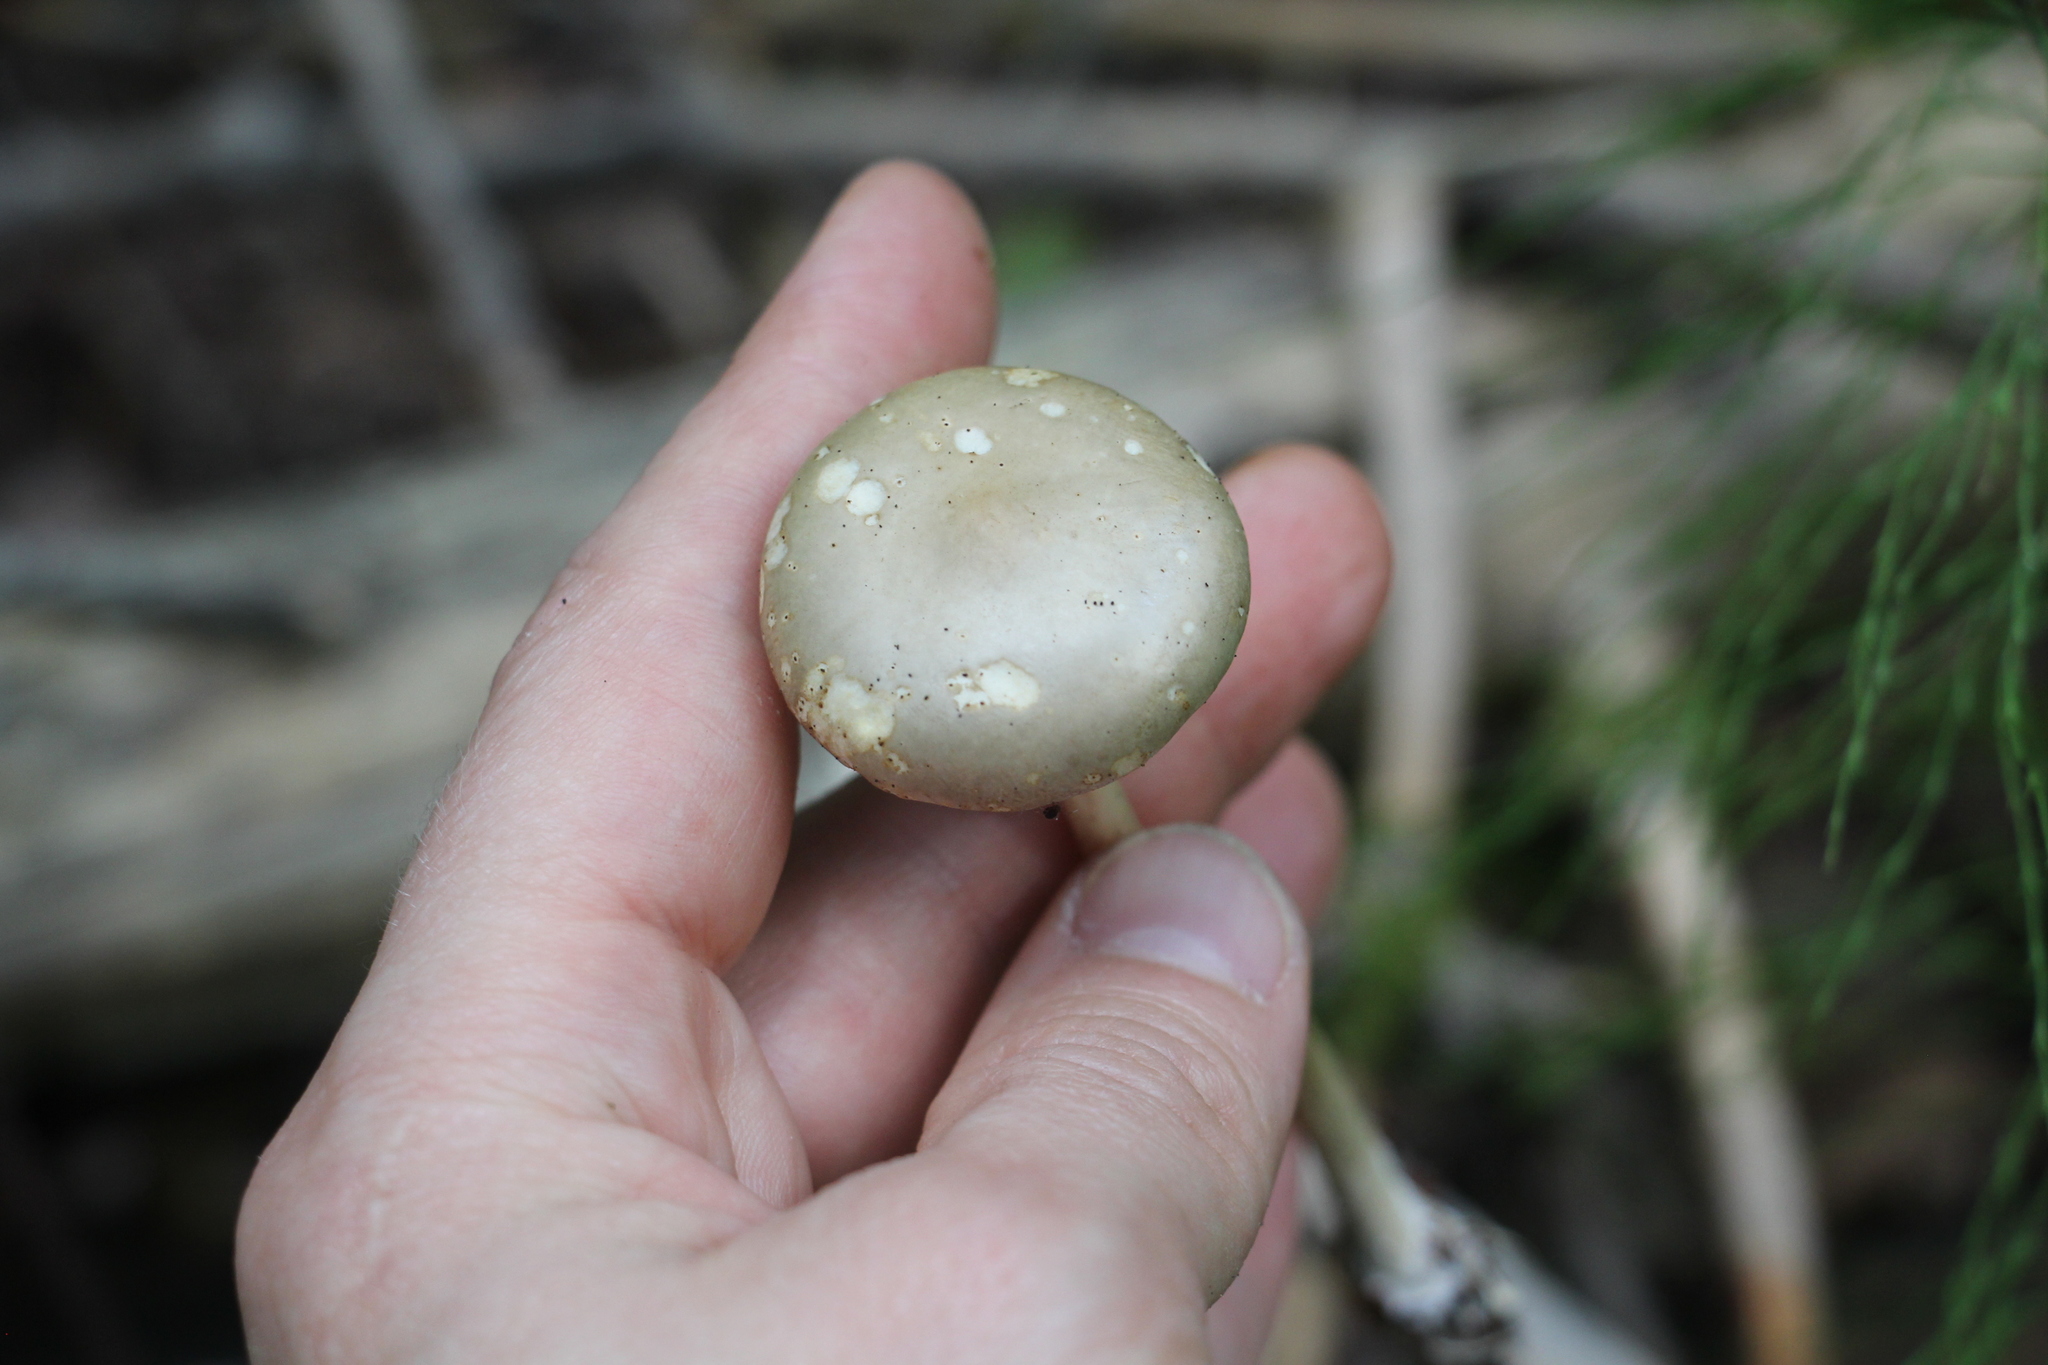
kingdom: Fungi
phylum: Basidiomycota
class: Agaricomycetes
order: Agaricales
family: Strophariaceae
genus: Agrocybe
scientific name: Agrocybe praecox
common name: Spring fieldcap
